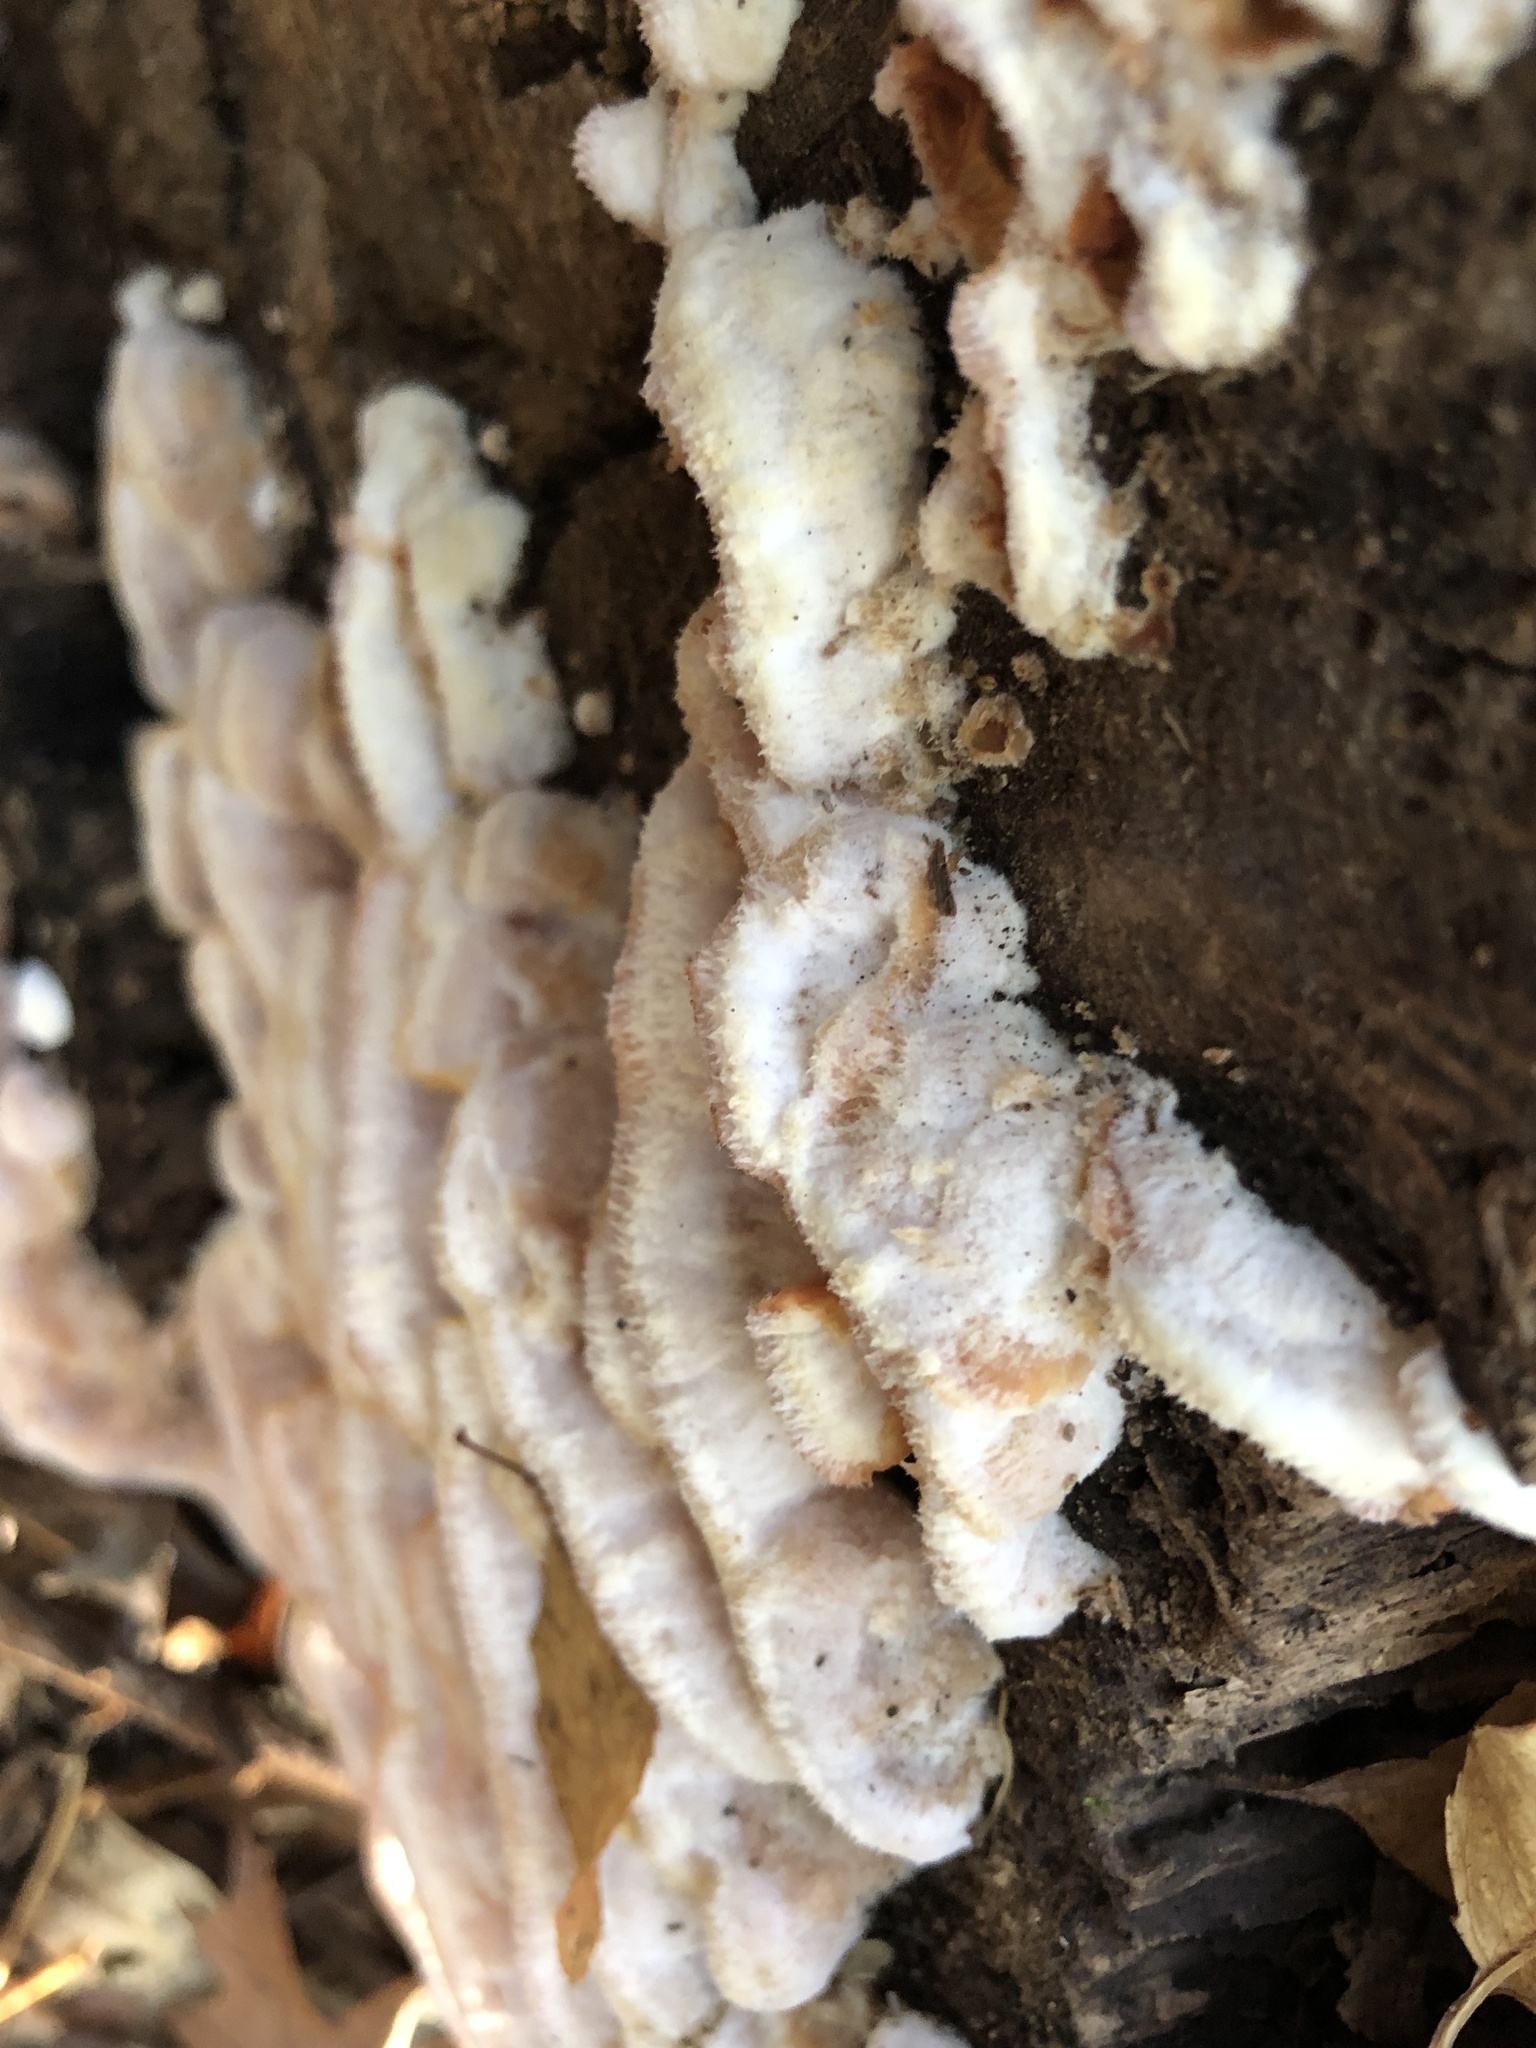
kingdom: Fungi
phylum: Basidiomycota
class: Agaricomycetes
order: Polyporales
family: Meruliaceae
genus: Phlebia
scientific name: Phlebia tremellosa
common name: Jelly rot
